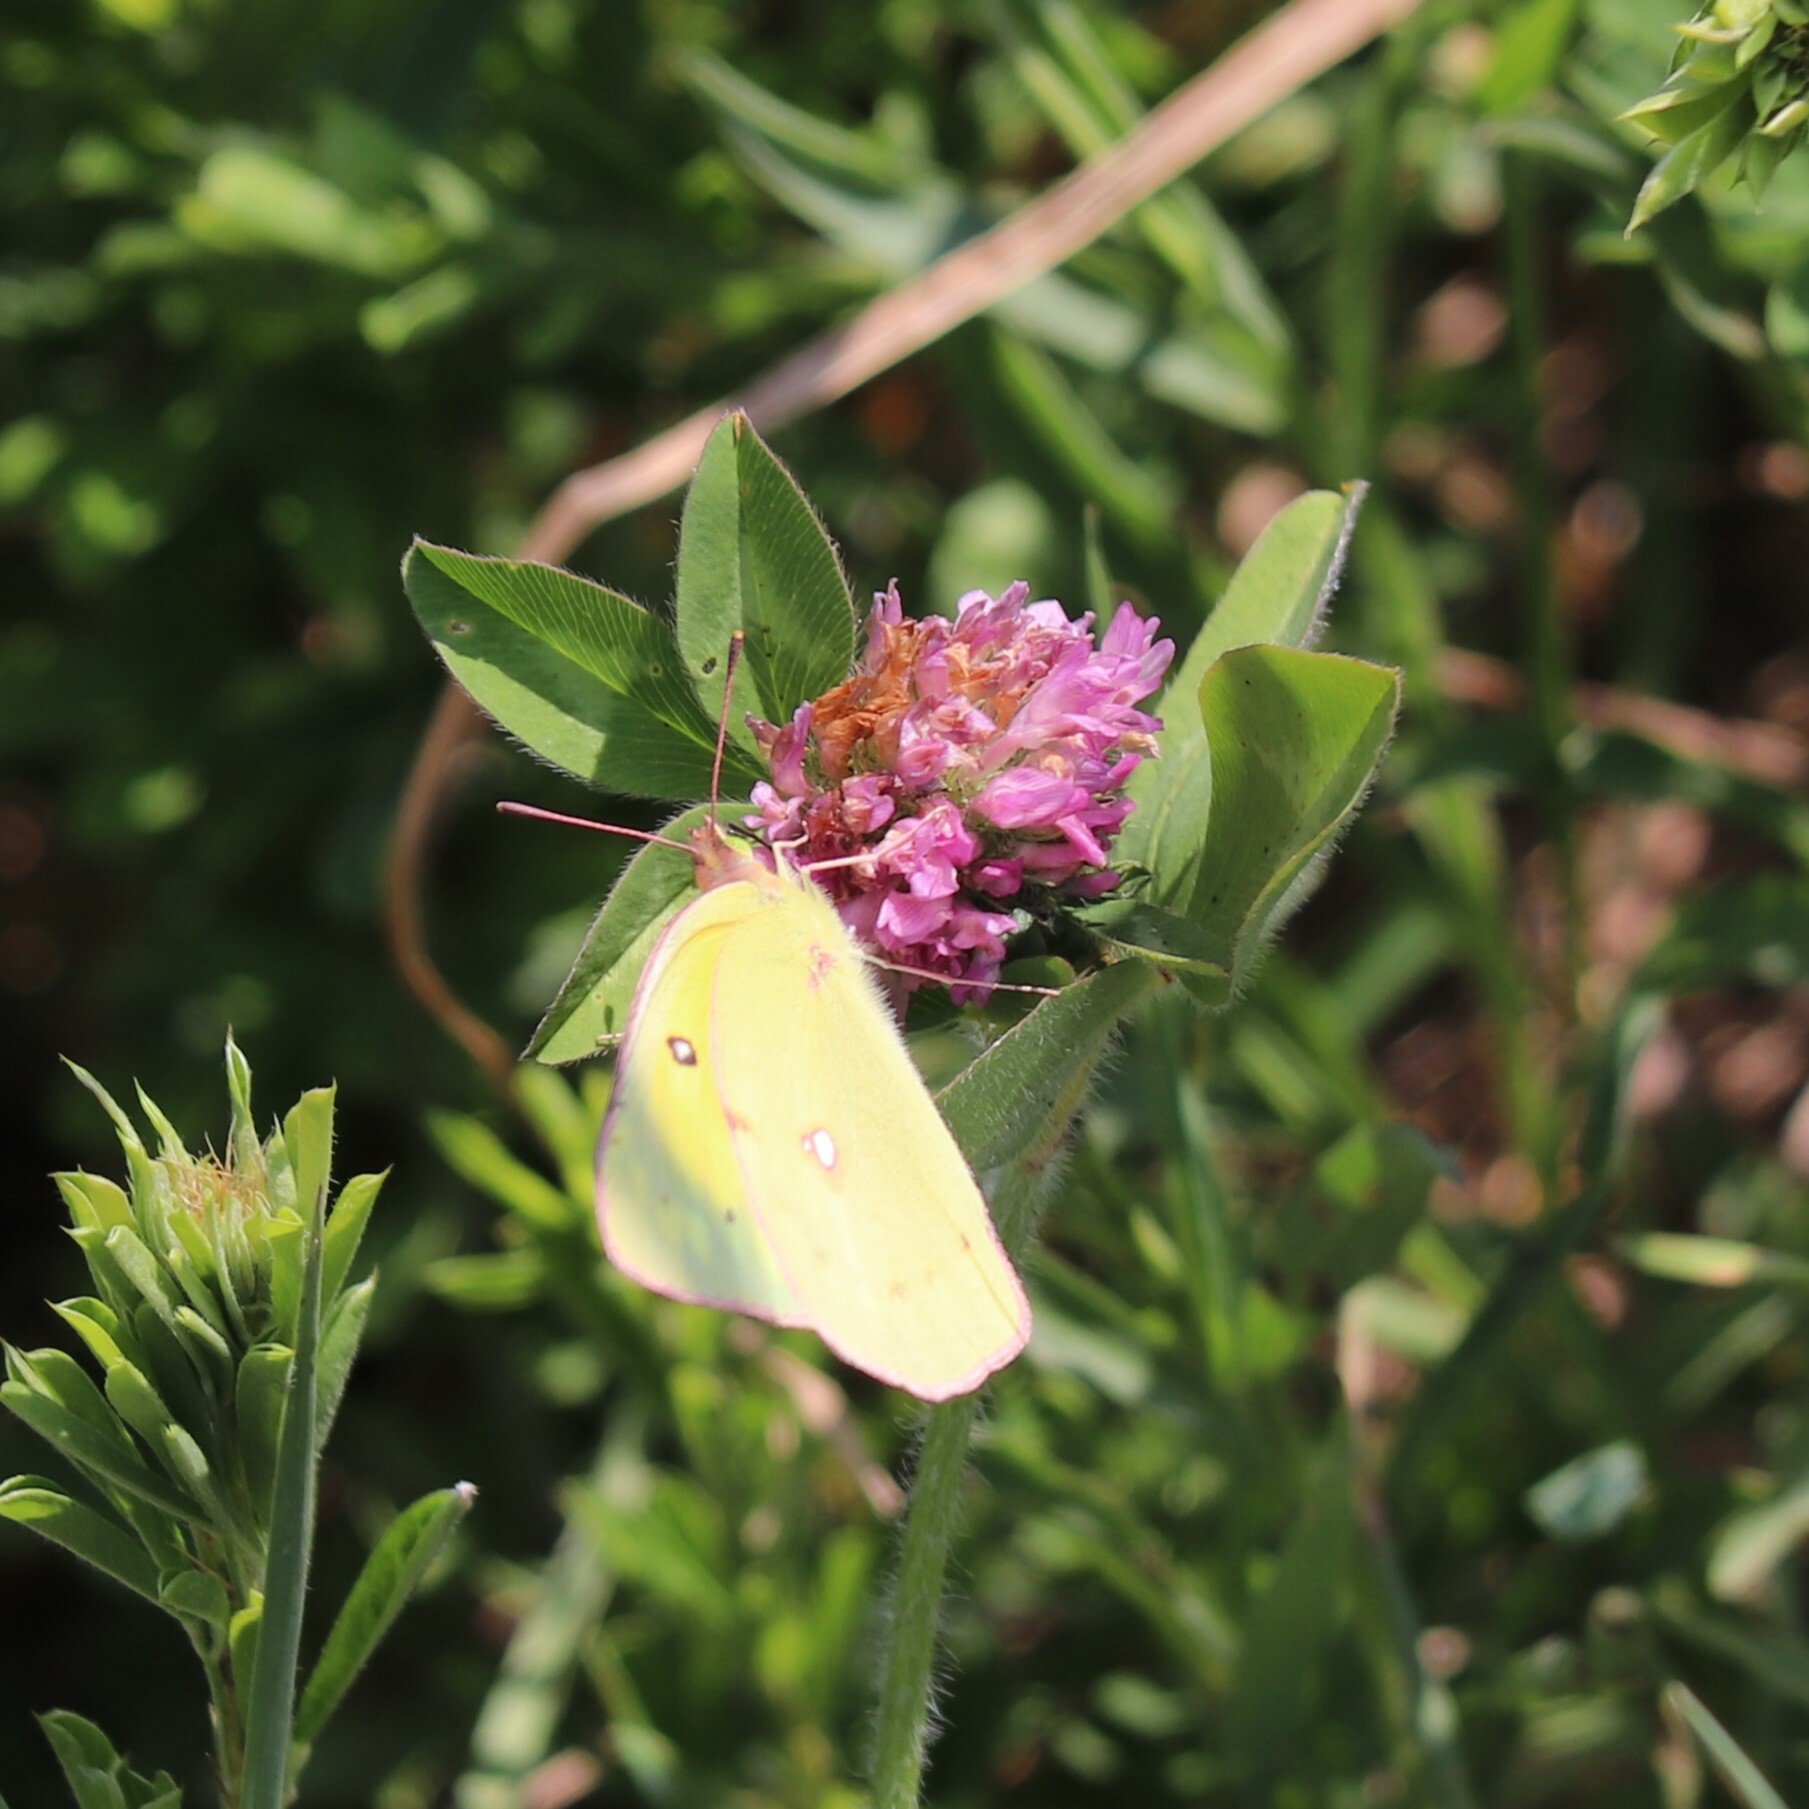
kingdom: Plantae
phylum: Tracheophyta
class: Magnoliopsida
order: Fabales
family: Fabaceae
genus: Trifolium
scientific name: Trifolium pratense
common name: Red clover
